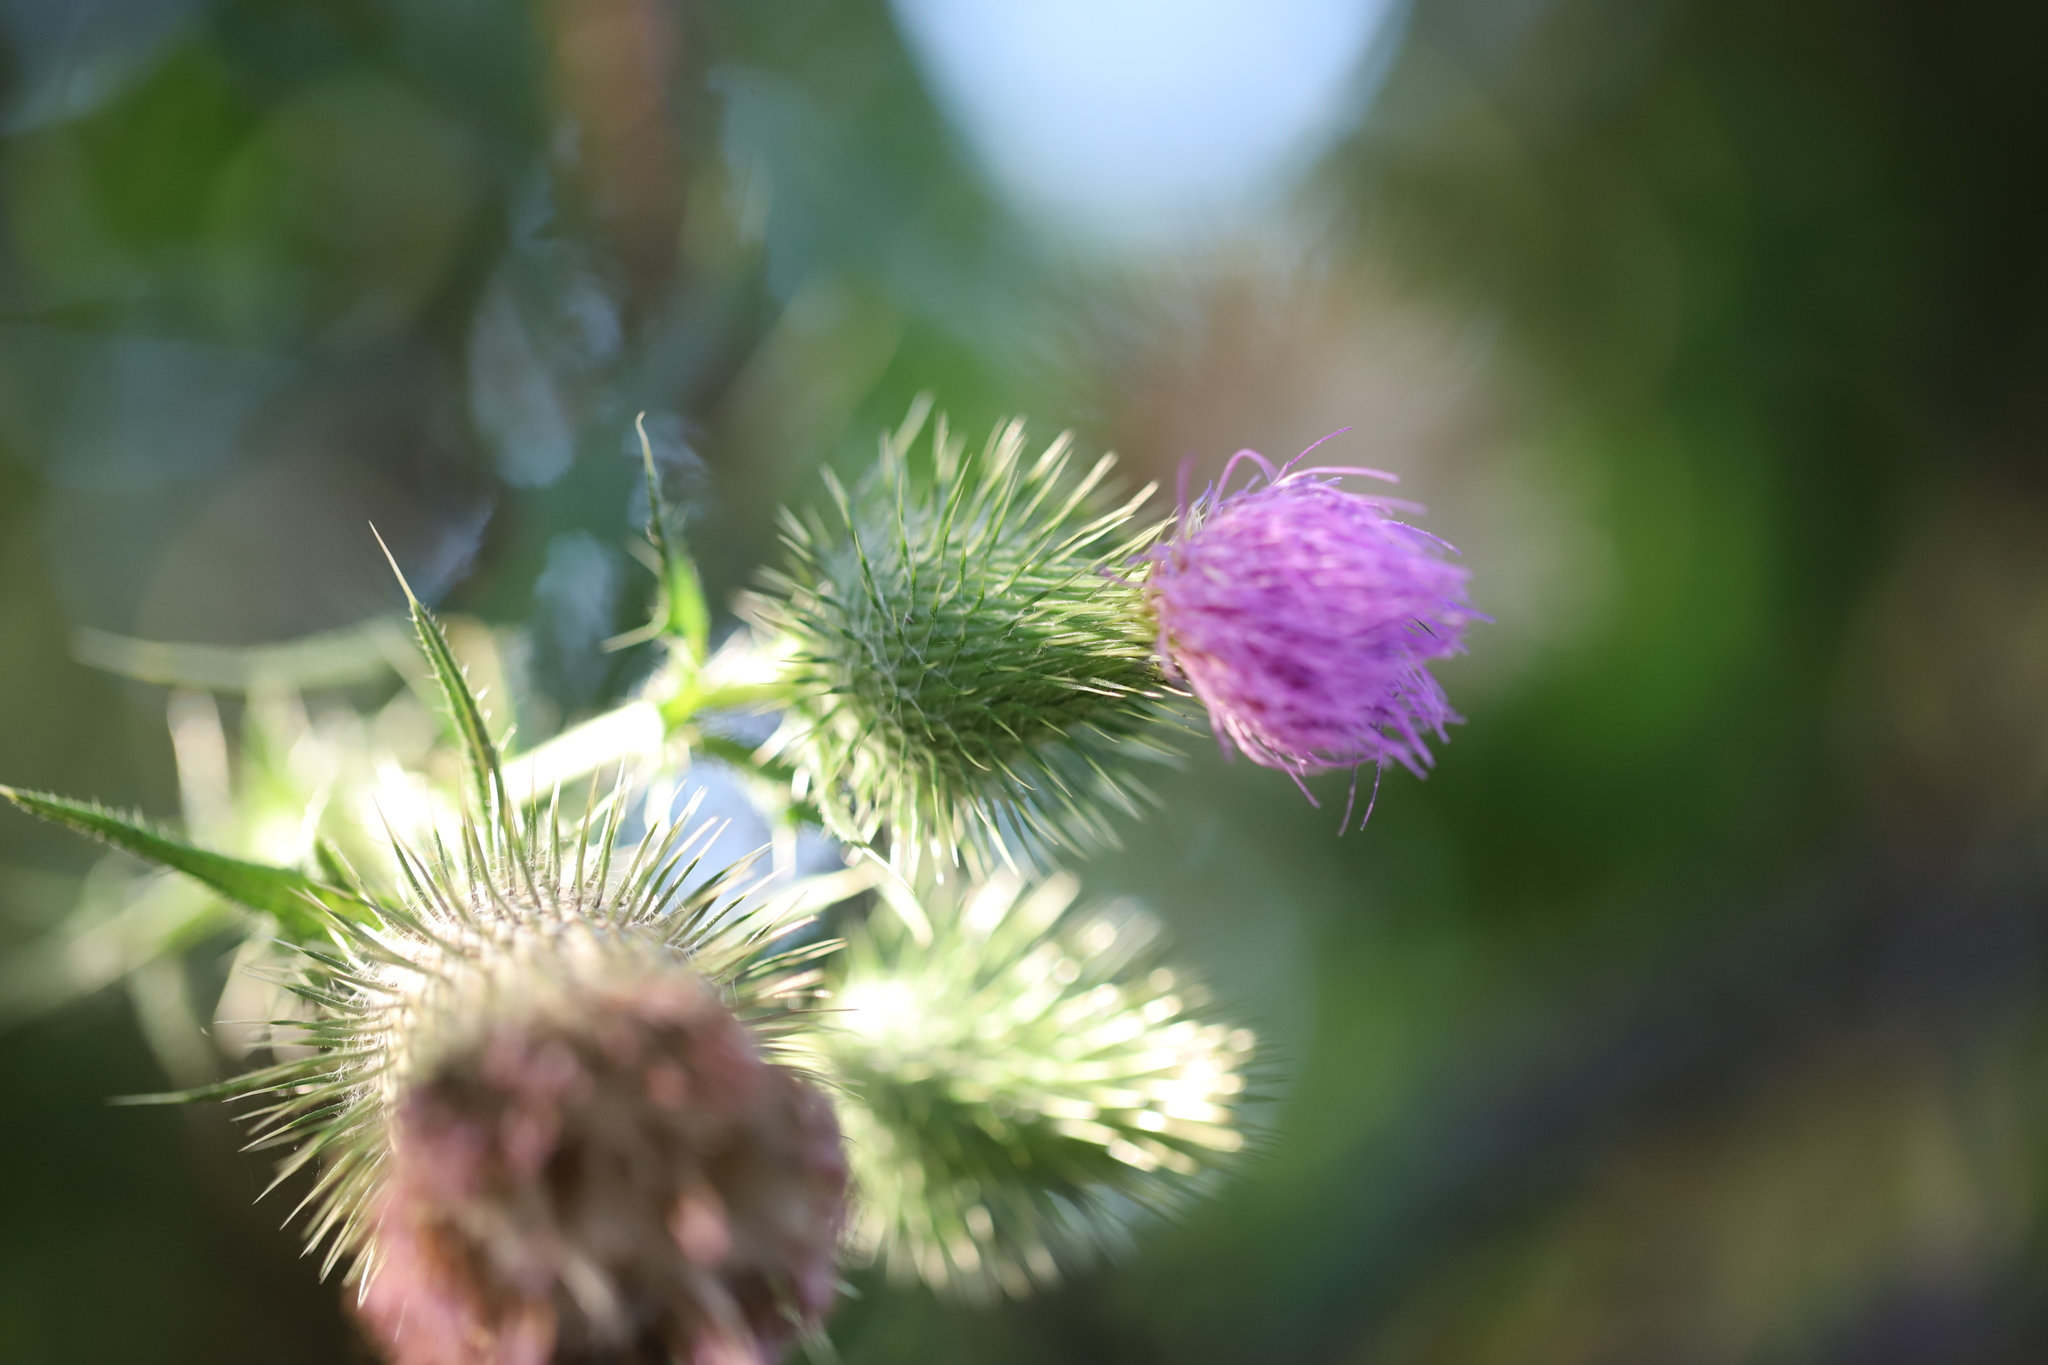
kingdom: Plantae
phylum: Tracheophyta
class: Magnoliopsida
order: Asterales
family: Asteraceae
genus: Cirsium
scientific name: Cirsium vulgare
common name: Bull thistle
